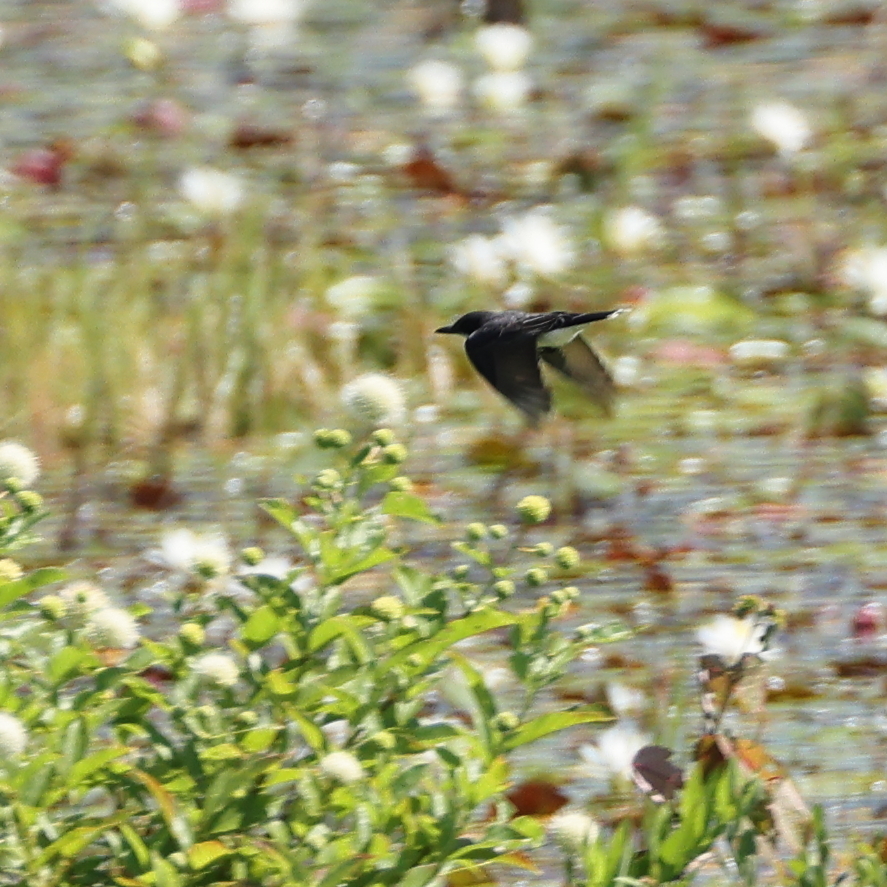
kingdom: Animalia
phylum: Chordata
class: Aves
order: Passeriformes
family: Tyrannidae
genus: Tyrannus
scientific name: Tyrannus tyrannus
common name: Eastern kingbird
